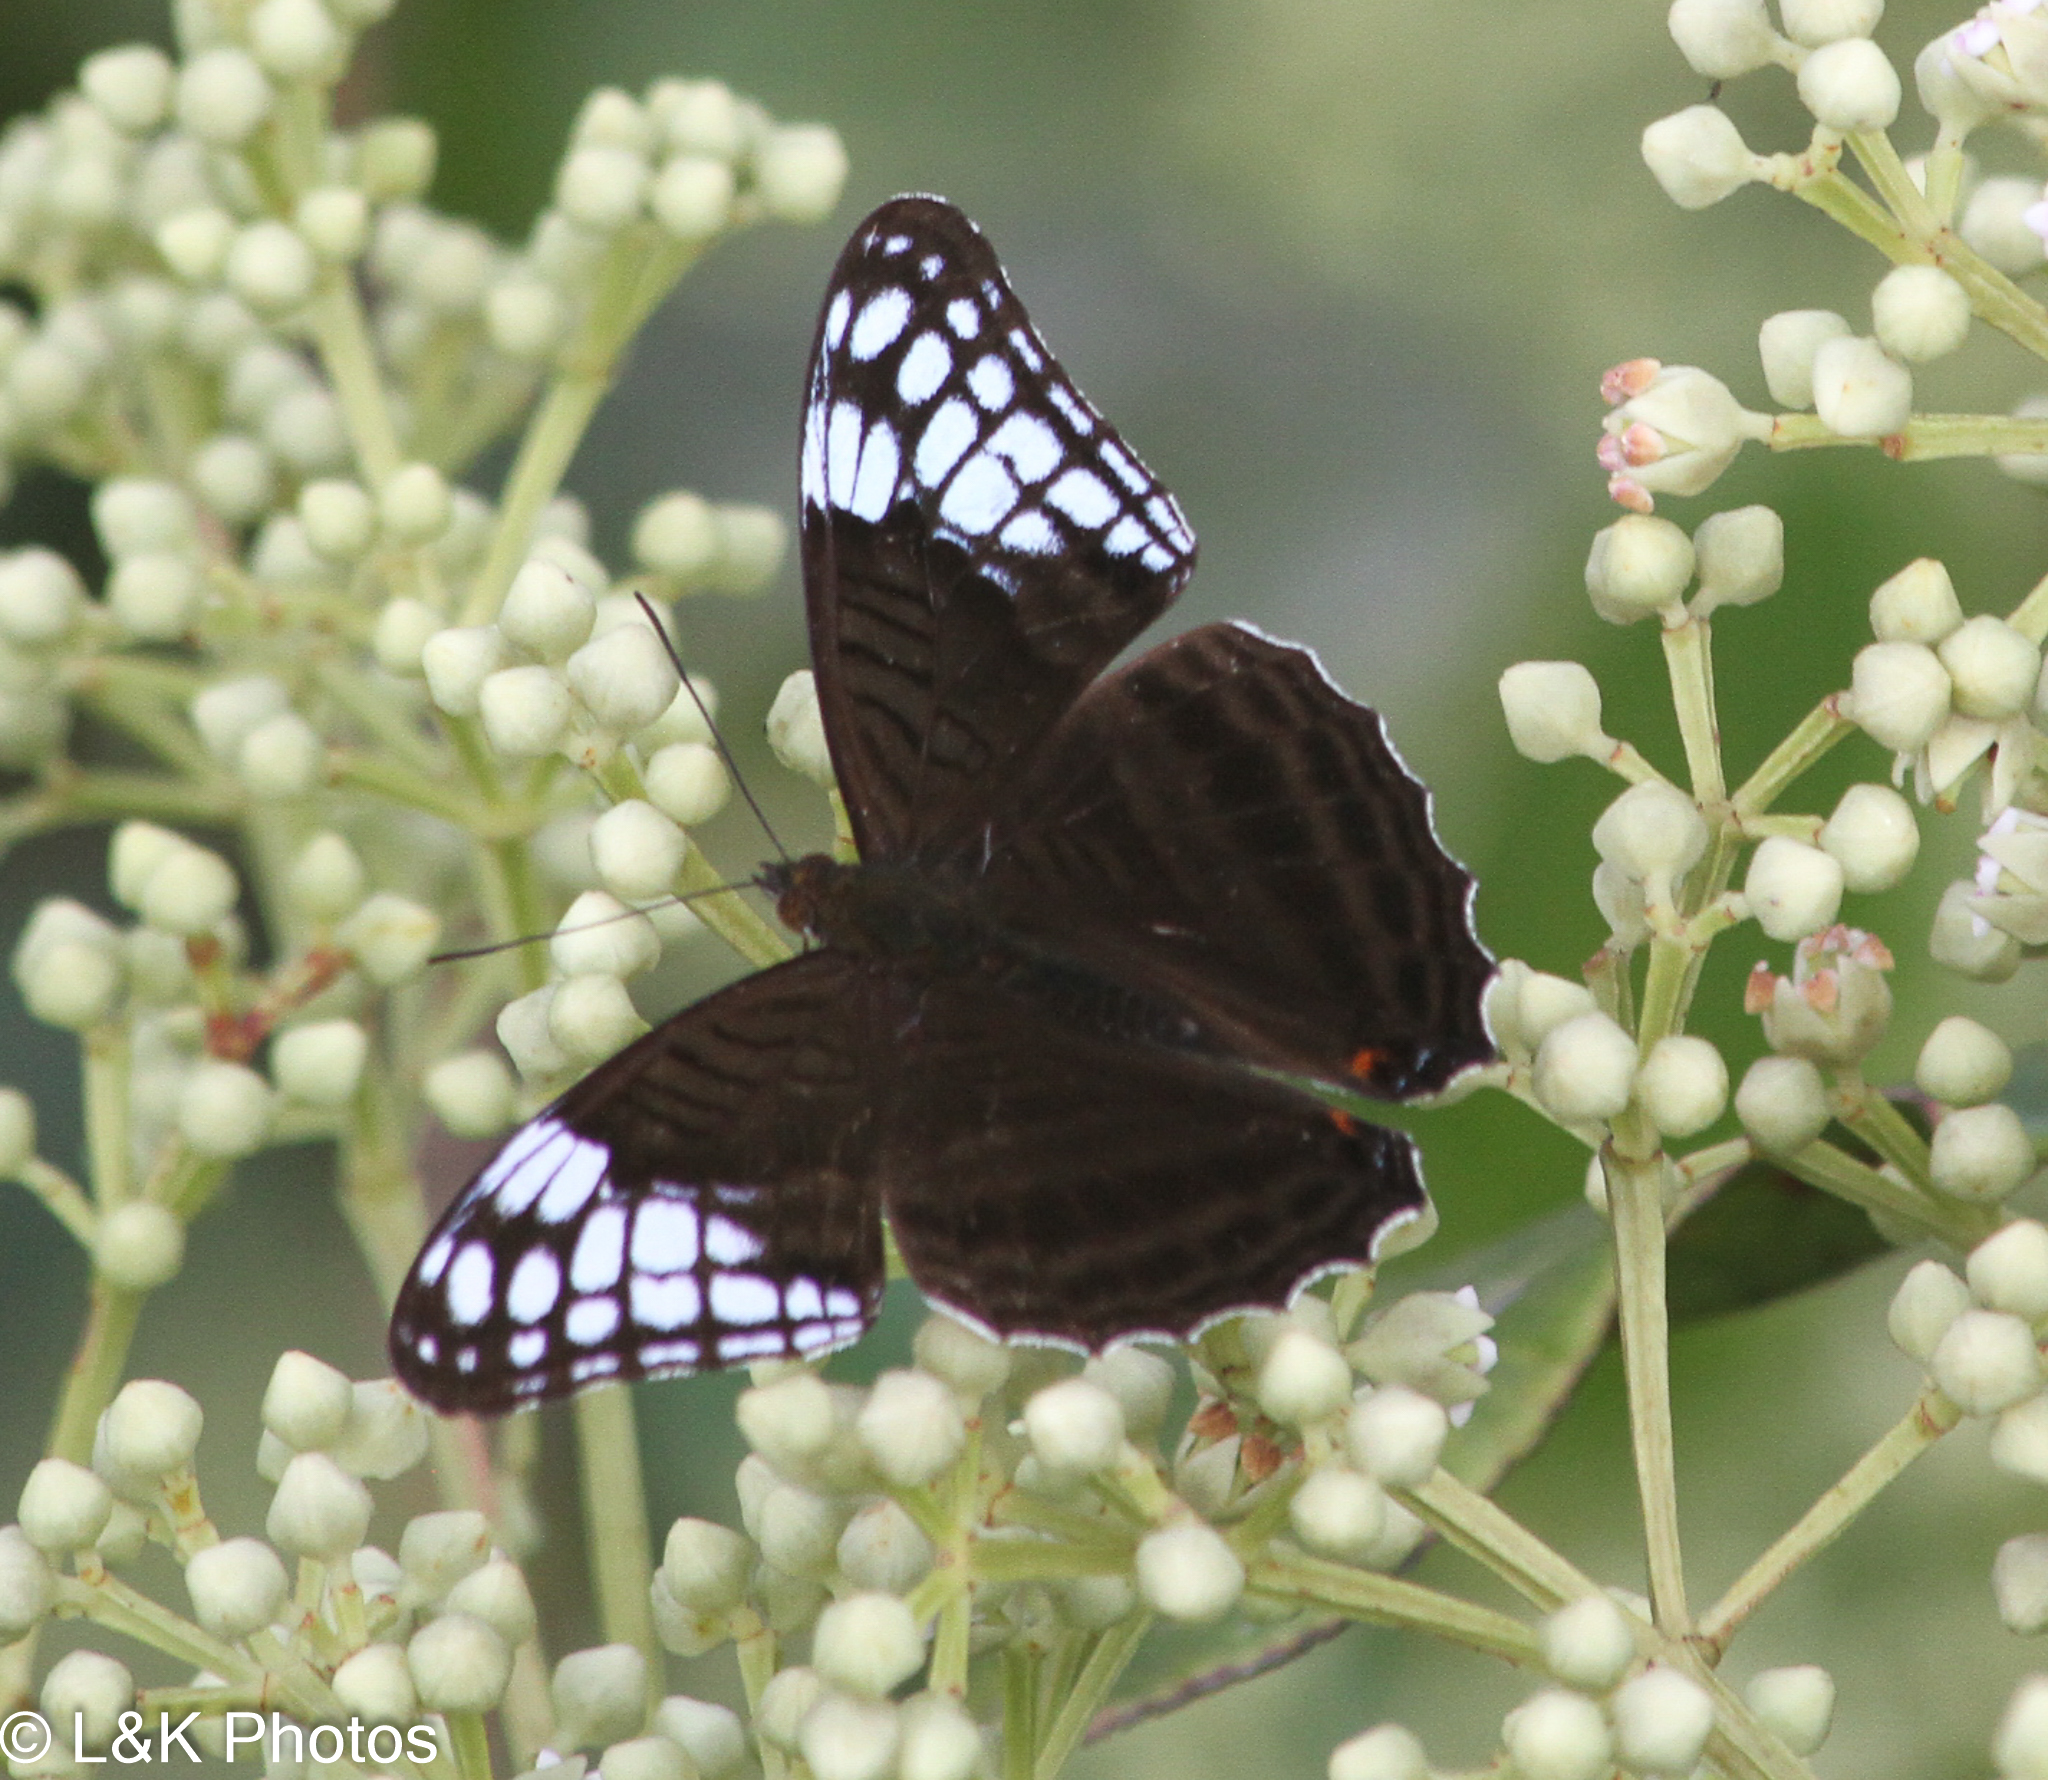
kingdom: Animalia
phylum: Arthropoda
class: Insecta
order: Lepidoptera
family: Nymphalidae
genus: Limenitis
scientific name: Limenitis Adelpha demialba
